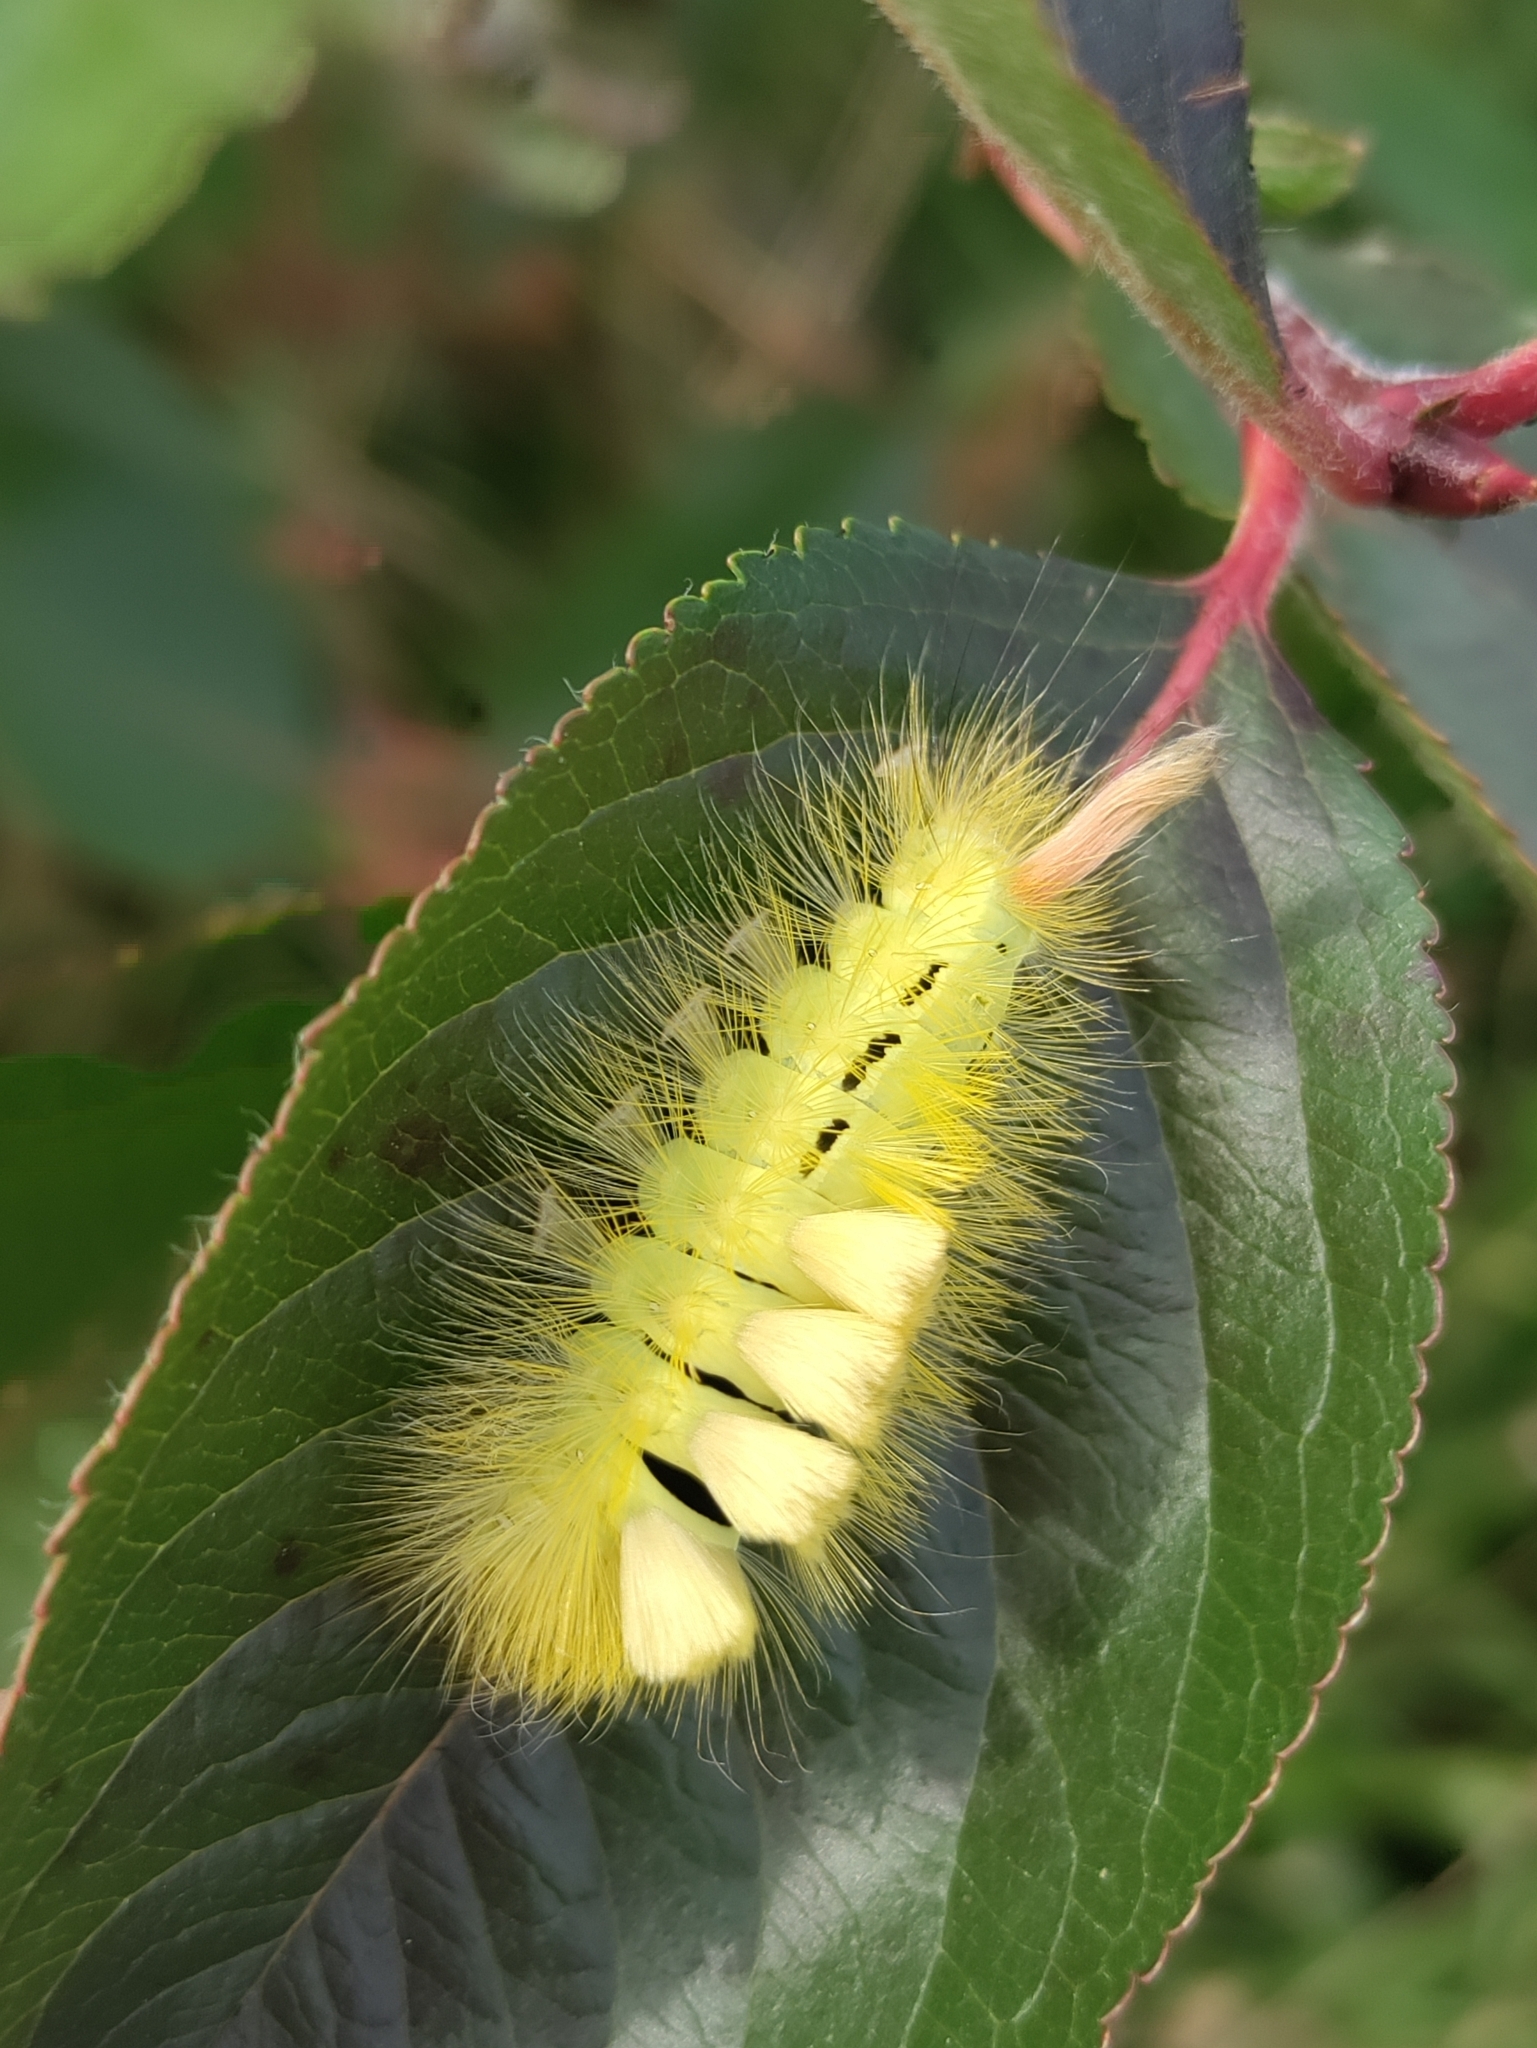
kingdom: Animalia
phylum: Arthropoda
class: Insecta
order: Lepidoptera
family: Erebidae
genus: Calliteara
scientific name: Calliteara pudibunda
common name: Pale tussock
